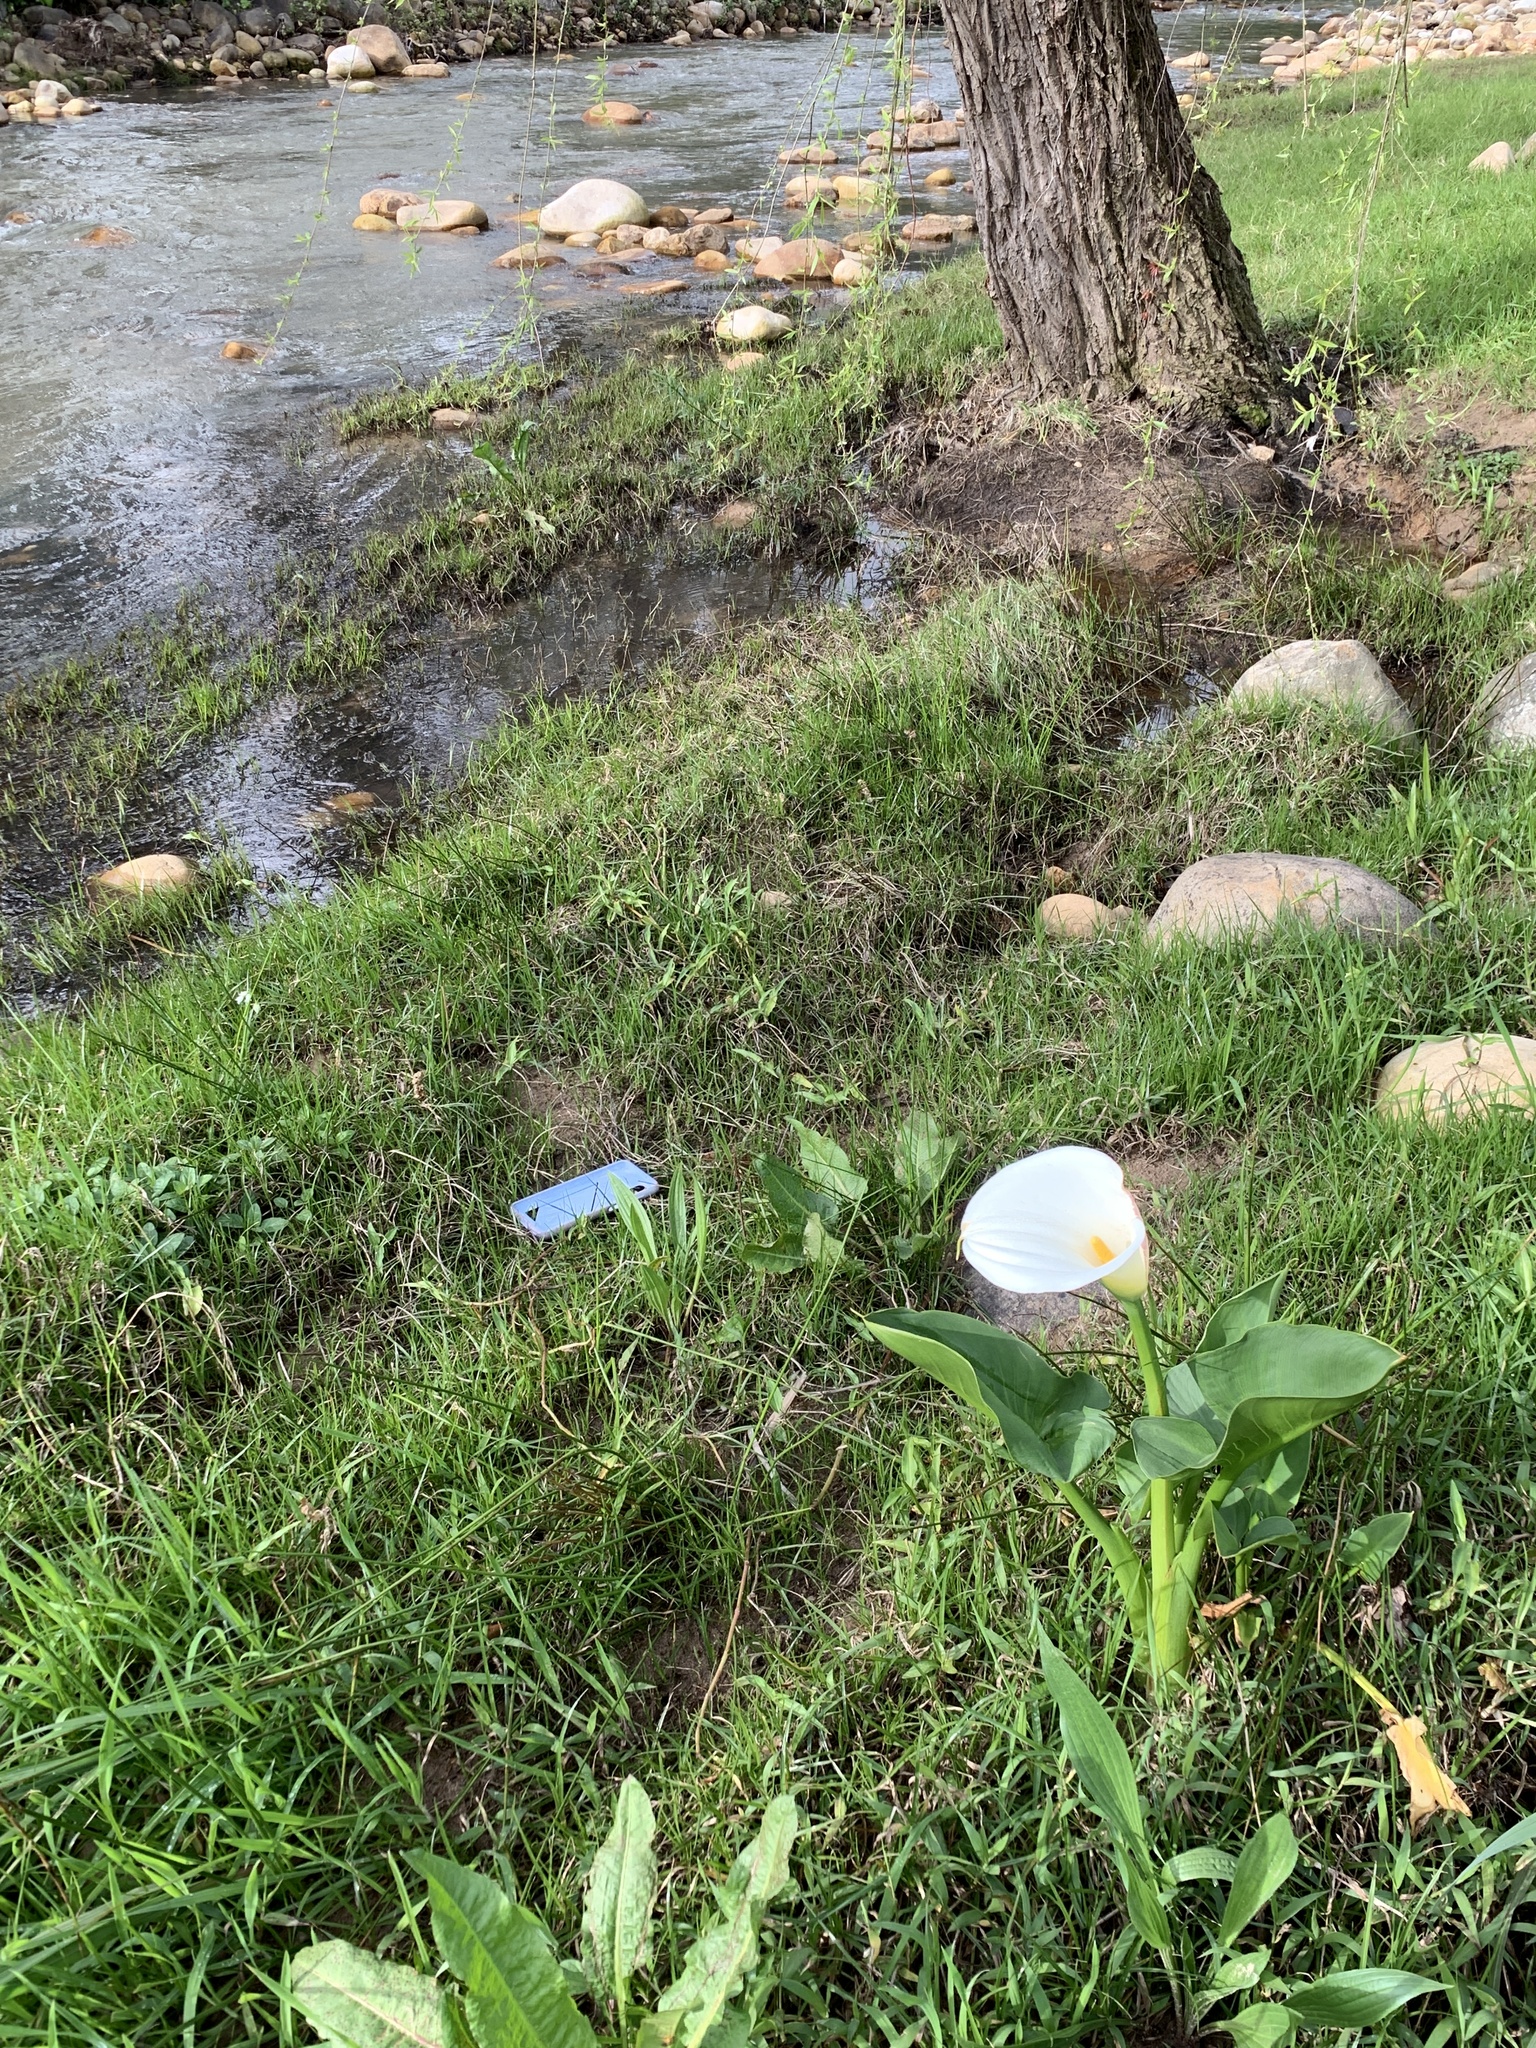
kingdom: Plantae
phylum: Tracheophyta
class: Liliopsida
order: Alismatales
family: Araceae
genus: Zantedeschia
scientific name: Zantedeschia aethiopica
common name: Altar-lily
